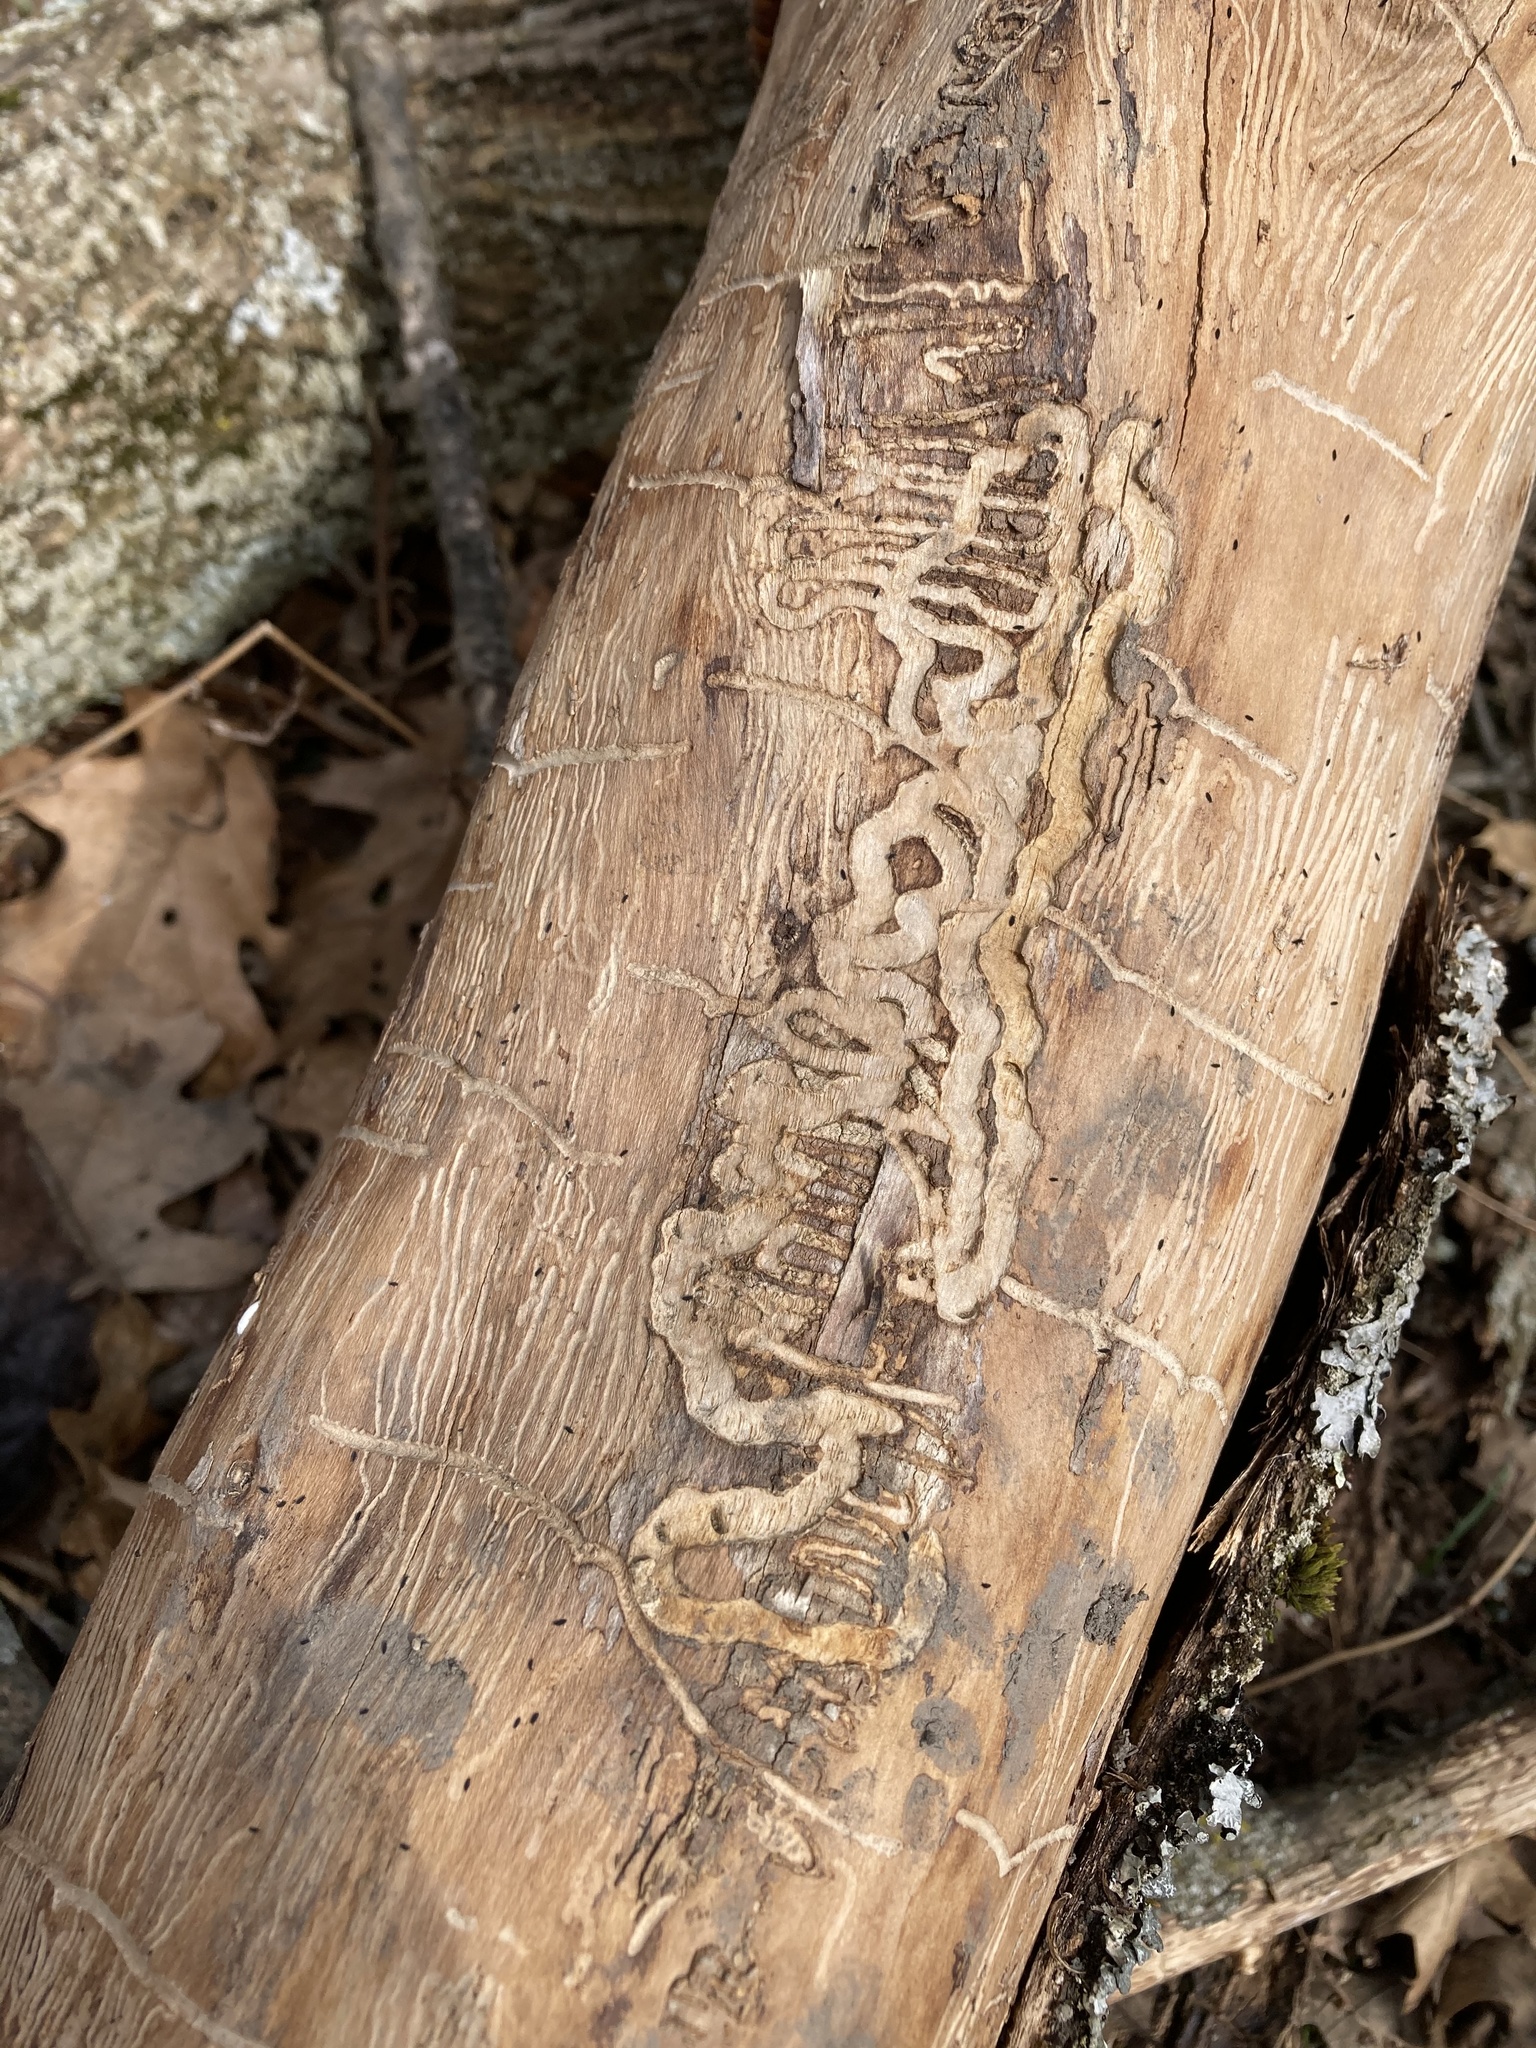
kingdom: Animalia
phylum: Arthropoda
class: Insecta
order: Coleoptera
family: Buprestidae
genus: Agrilus
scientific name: Agrilus planipennis
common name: Emerald ash borer
